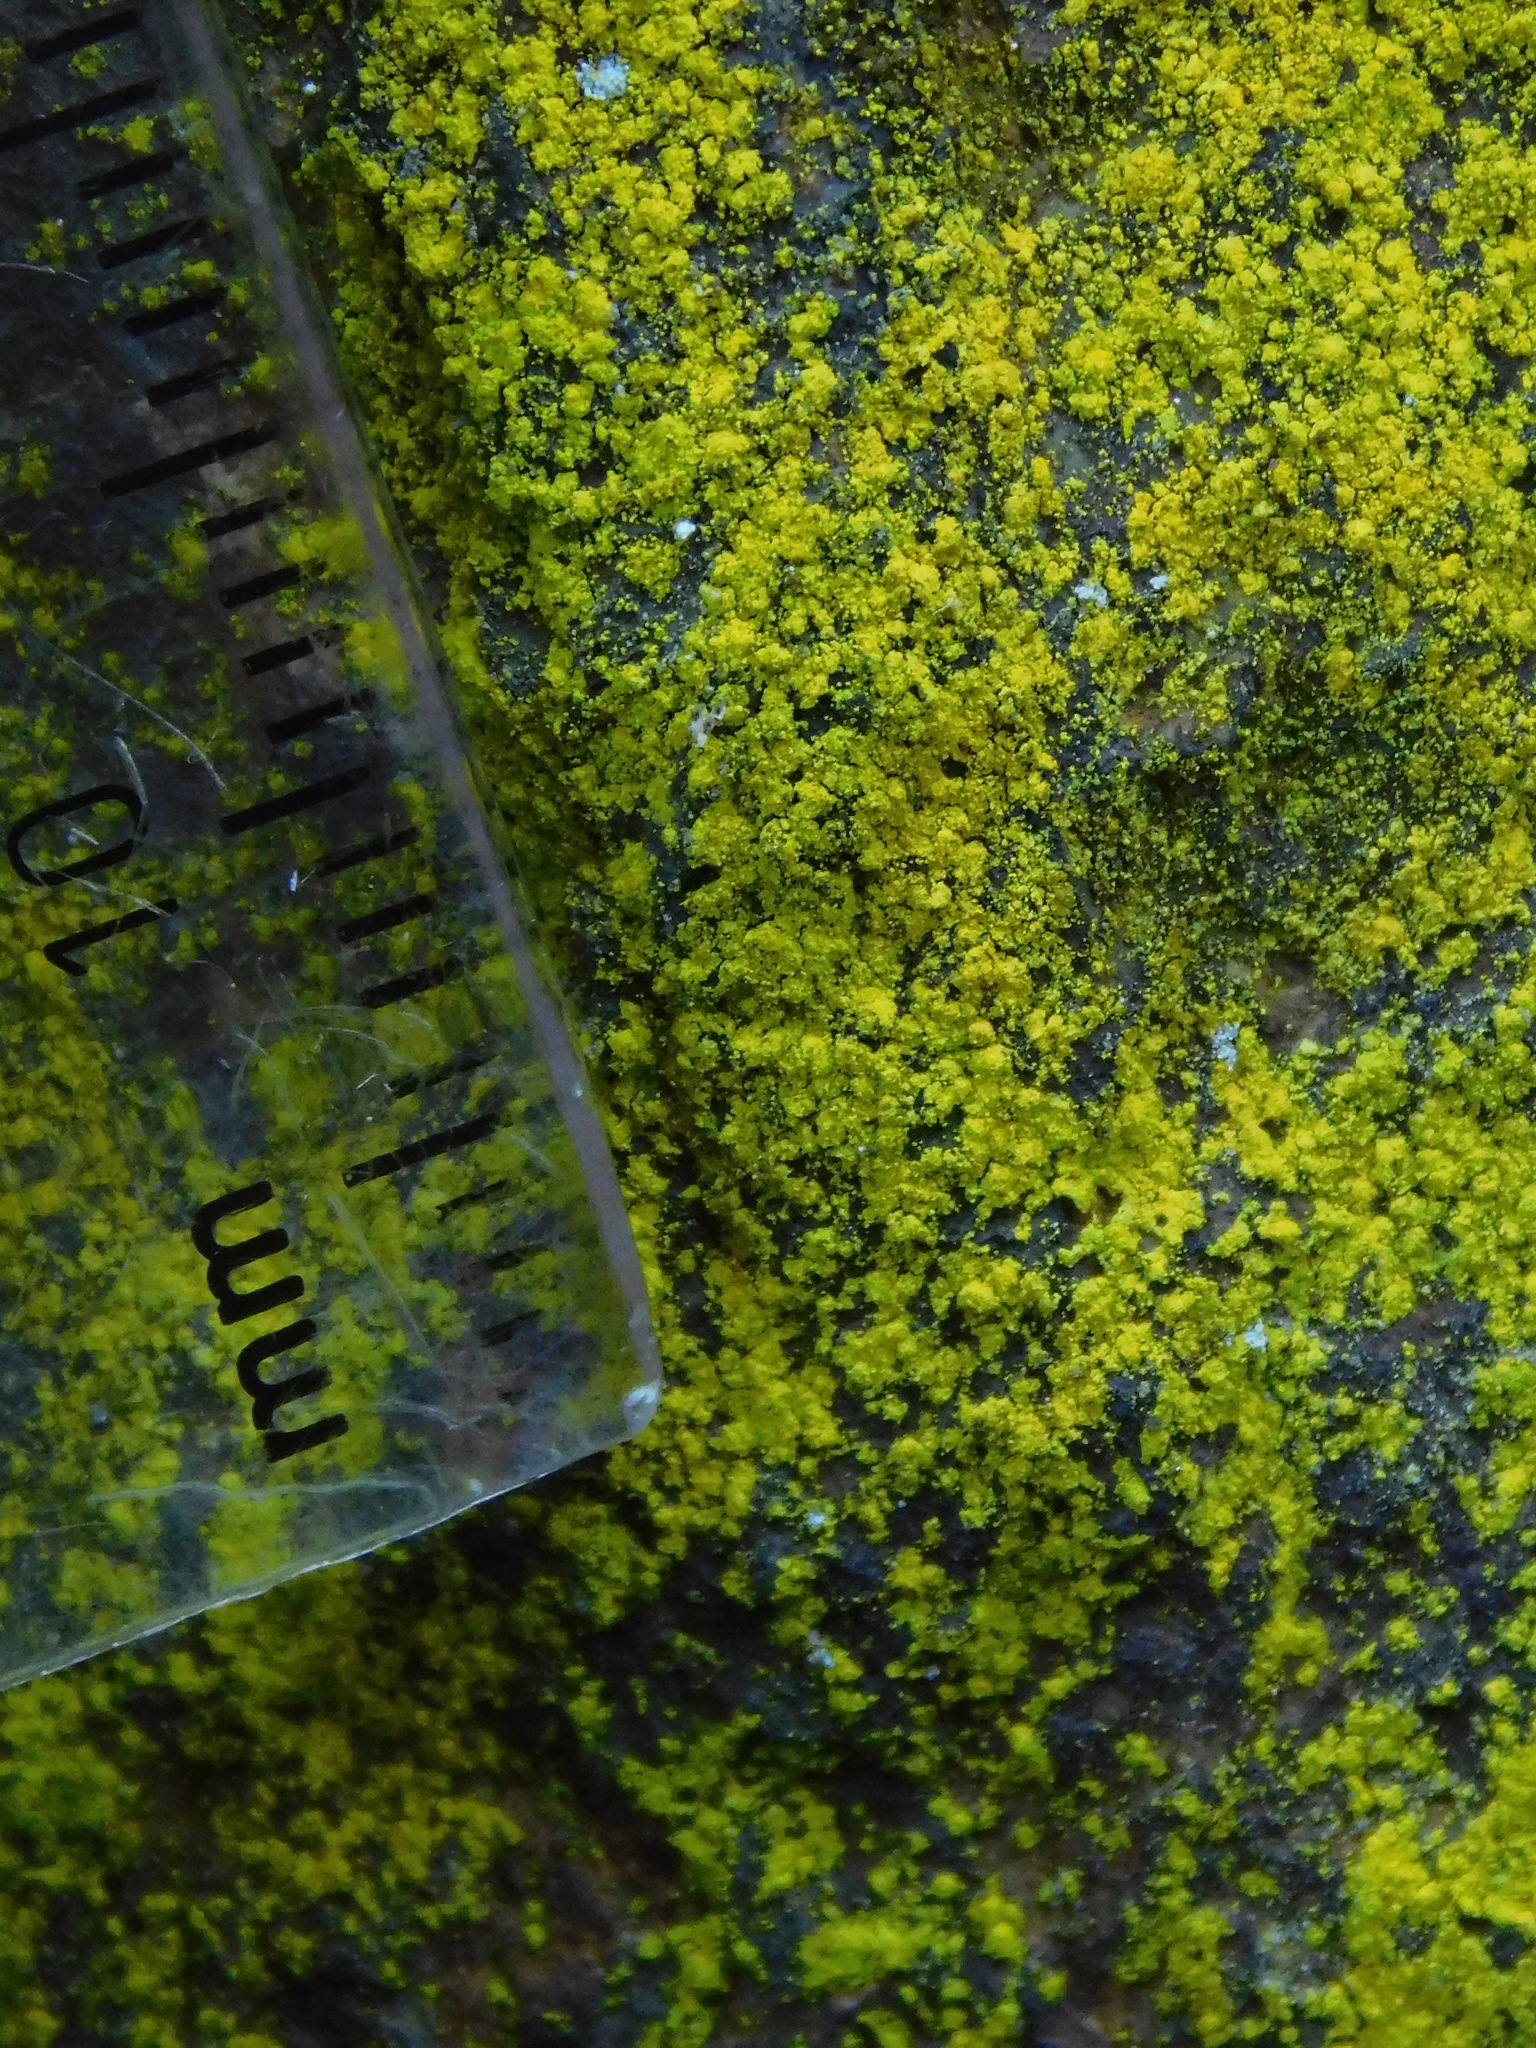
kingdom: Fungi
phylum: Ascomycota
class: Arthoniomycetes
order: Arthoniales
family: Chrysotrichaceae
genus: Chrysothrix
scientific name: Chrysothrix insulizans
